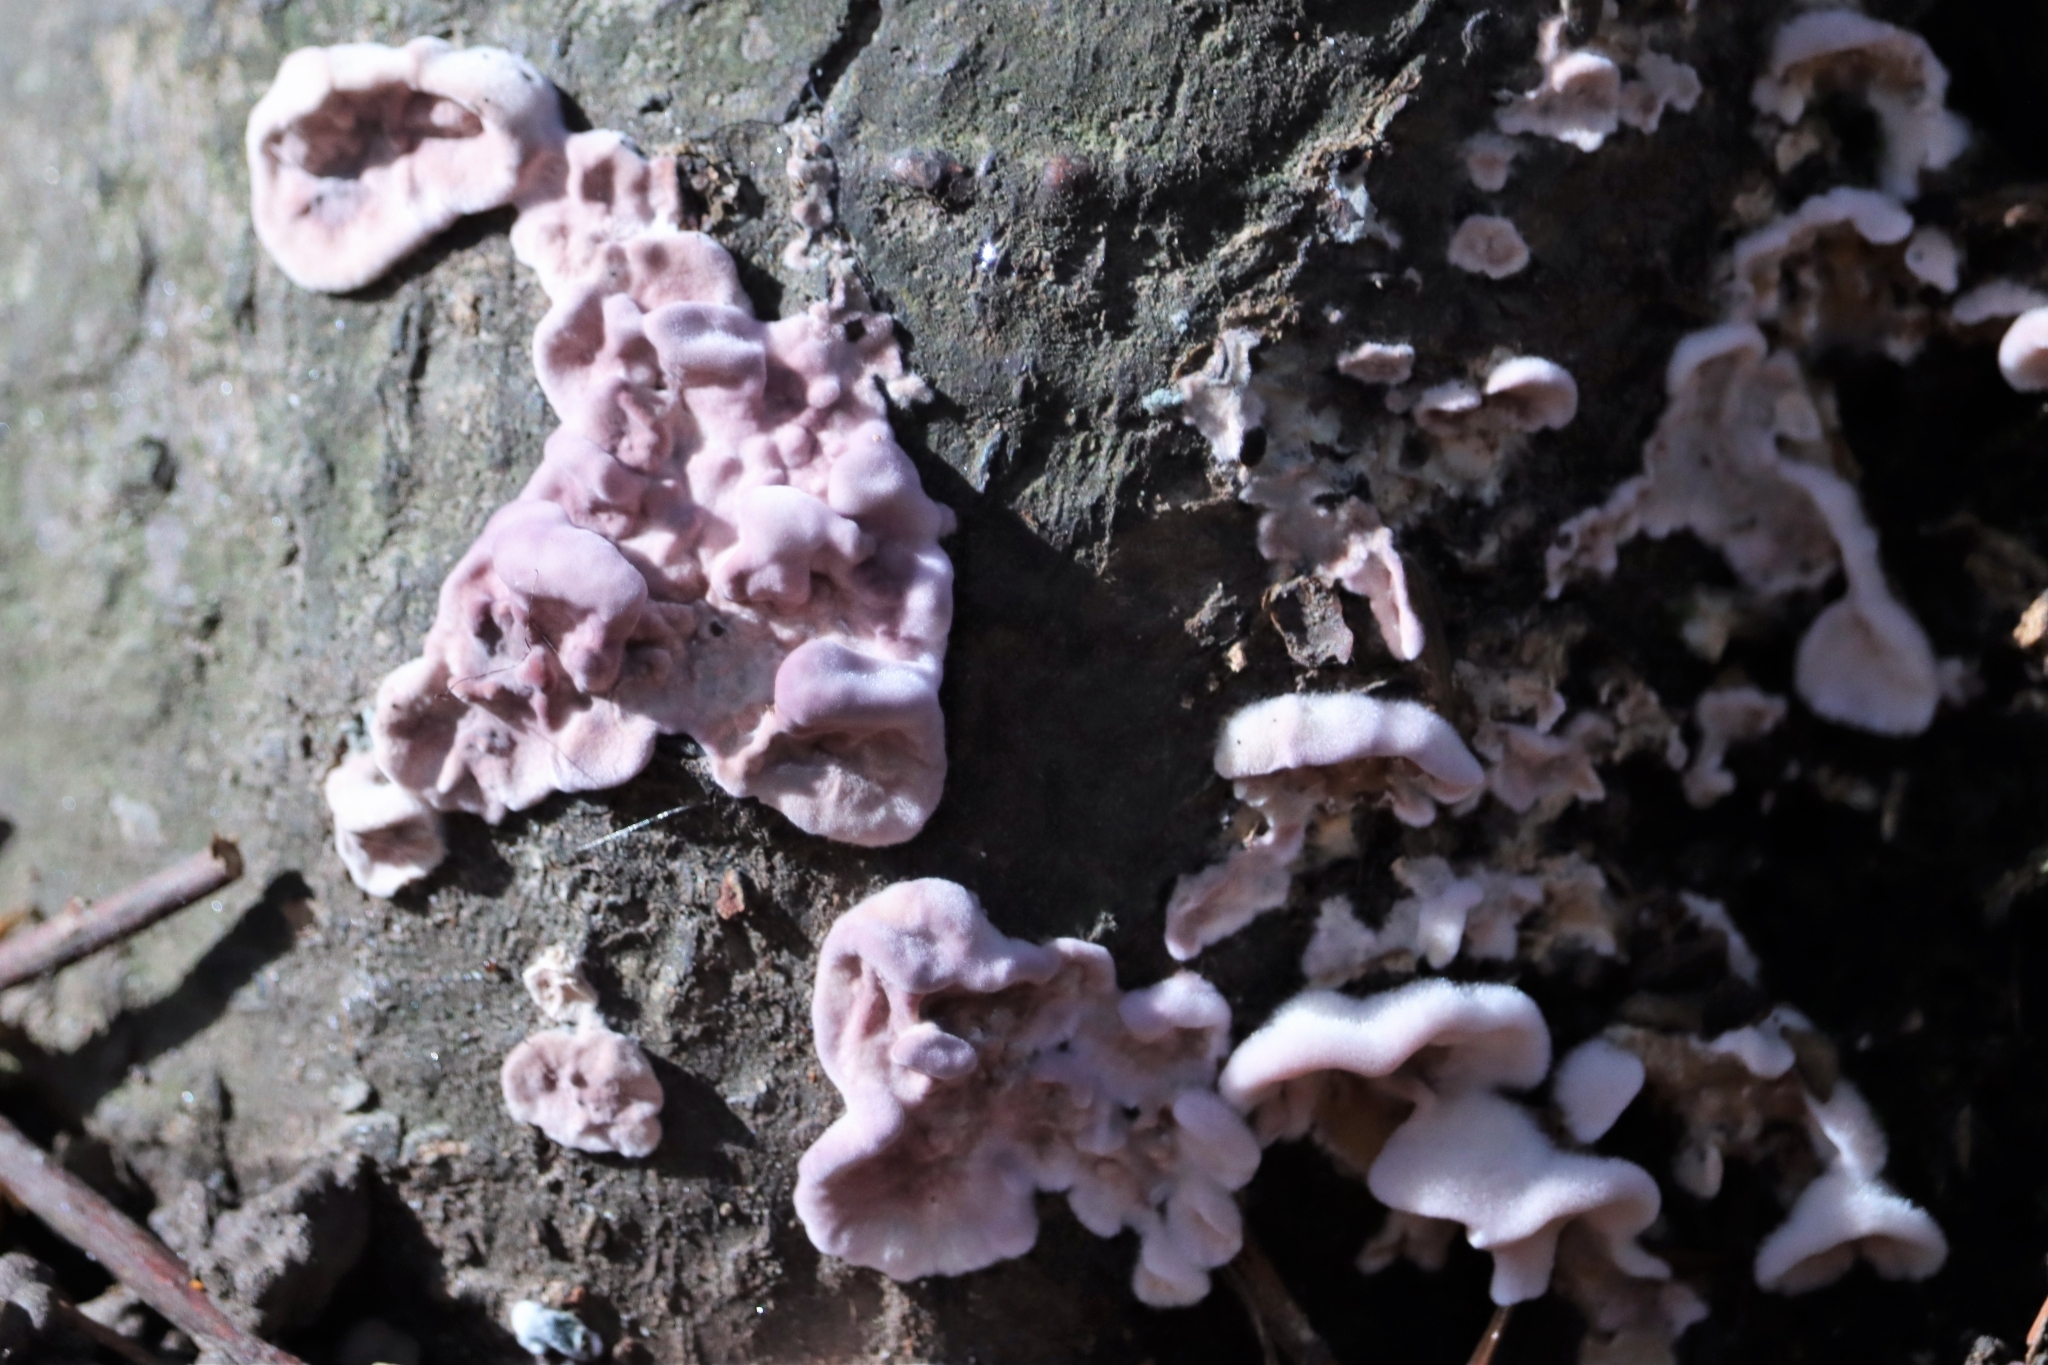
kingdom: Fungi
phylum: Basidiomycota
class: Agaricomycetes
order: Agaricales
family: Cyphellaceae
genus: Chondrostereum
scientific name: Chondrostereum purpureum
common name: Silver leaf disease
